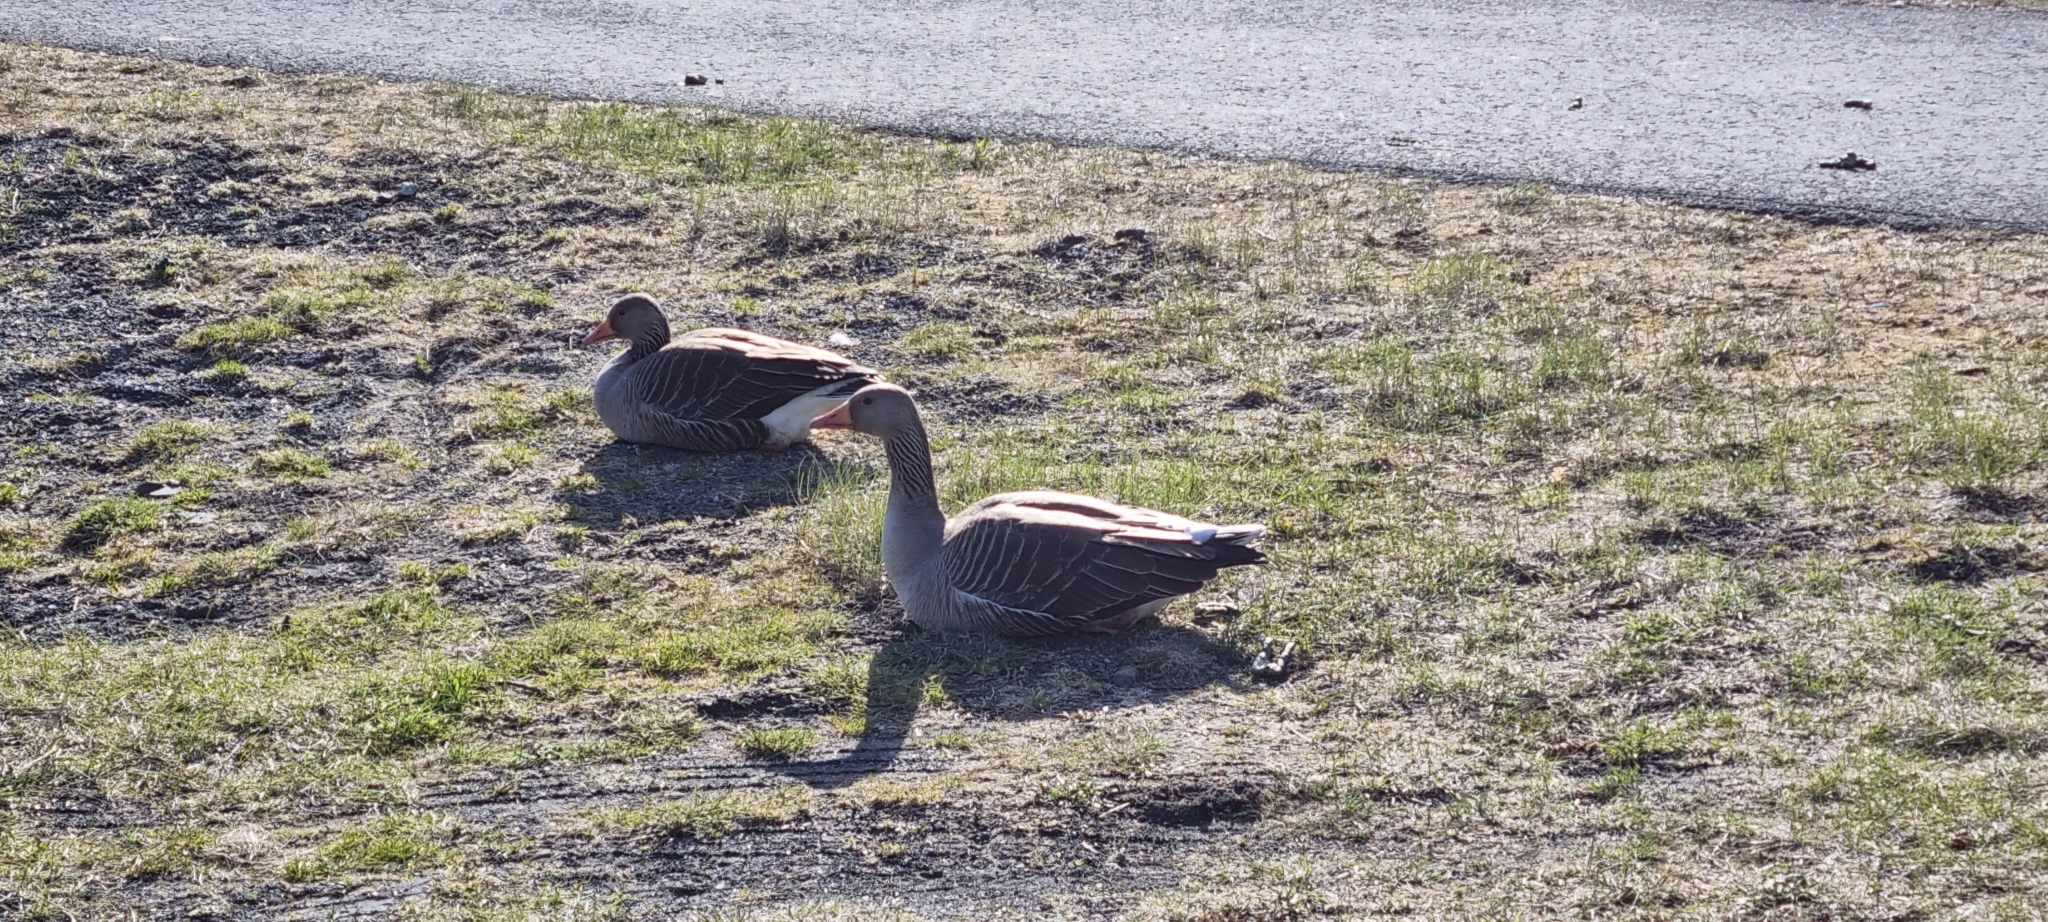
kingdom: Animalia
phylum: Chordata
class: Aves
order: Anseriformes
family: Anatidae
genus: Anser
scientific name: Anser anser
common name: Greylag goose
